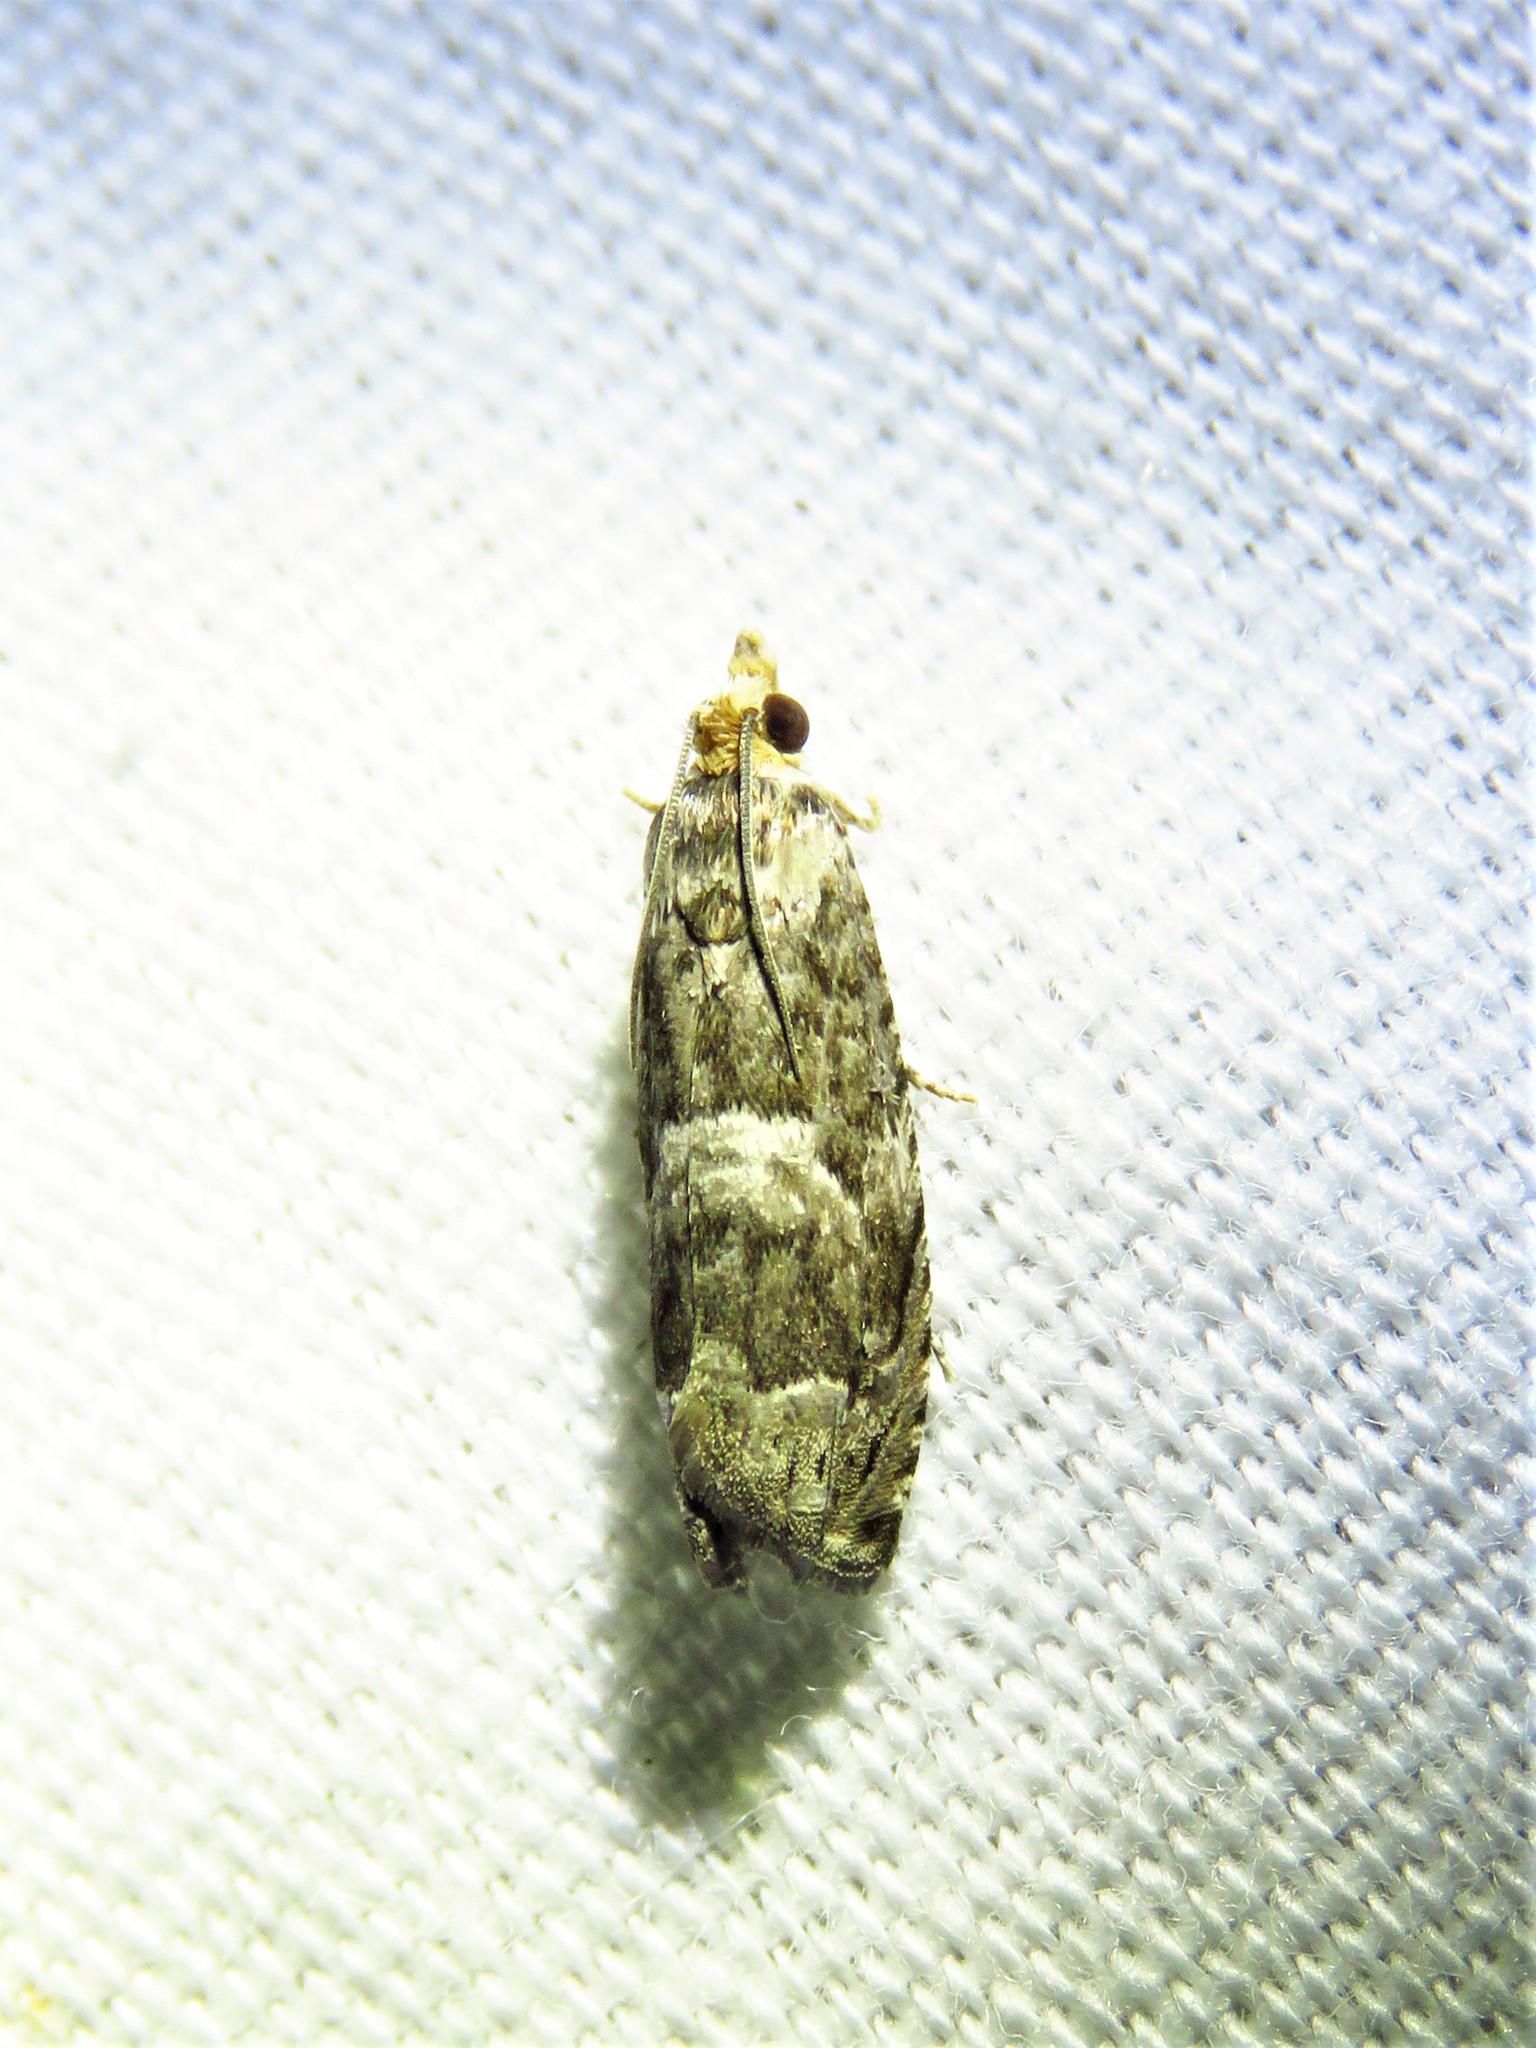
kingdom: Animalia
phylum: Arthropoda
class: Insecta
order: Lepidoptera
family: Tortricidae
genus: Cydia
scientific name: Cydia membrosa
